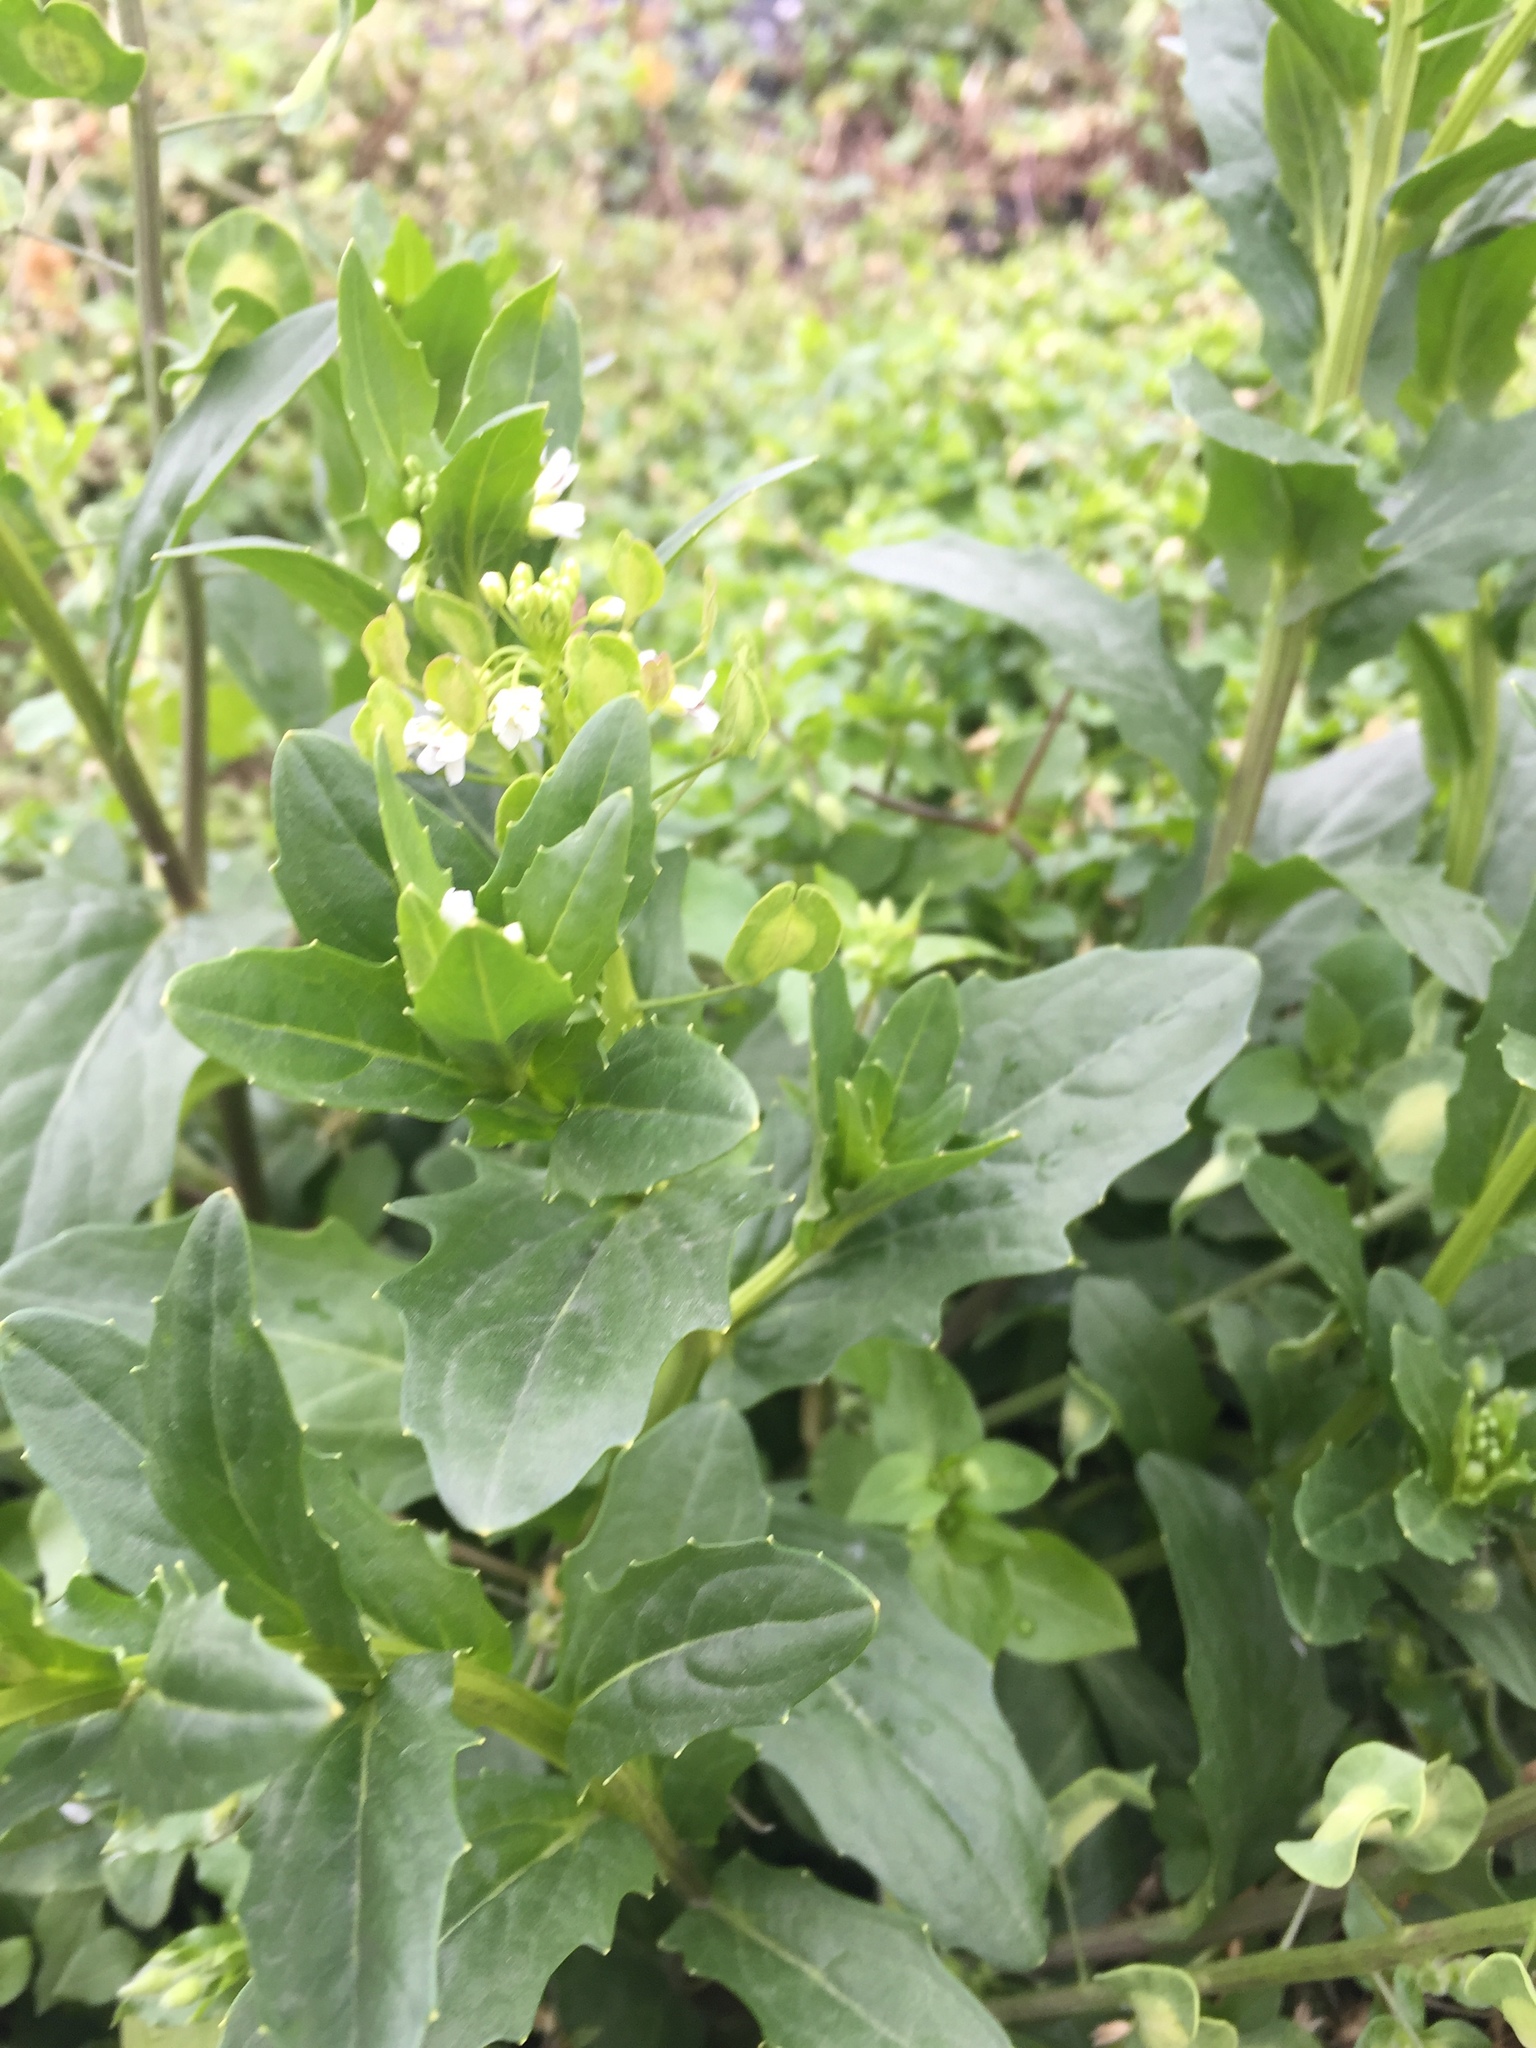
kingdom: Plantae
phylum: Tracheophyta
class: Magnoliopsida
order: Brassicales
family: Brassicaceae
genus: Thlaspi
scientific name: Thlaspi arvense
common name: Field pennycress
